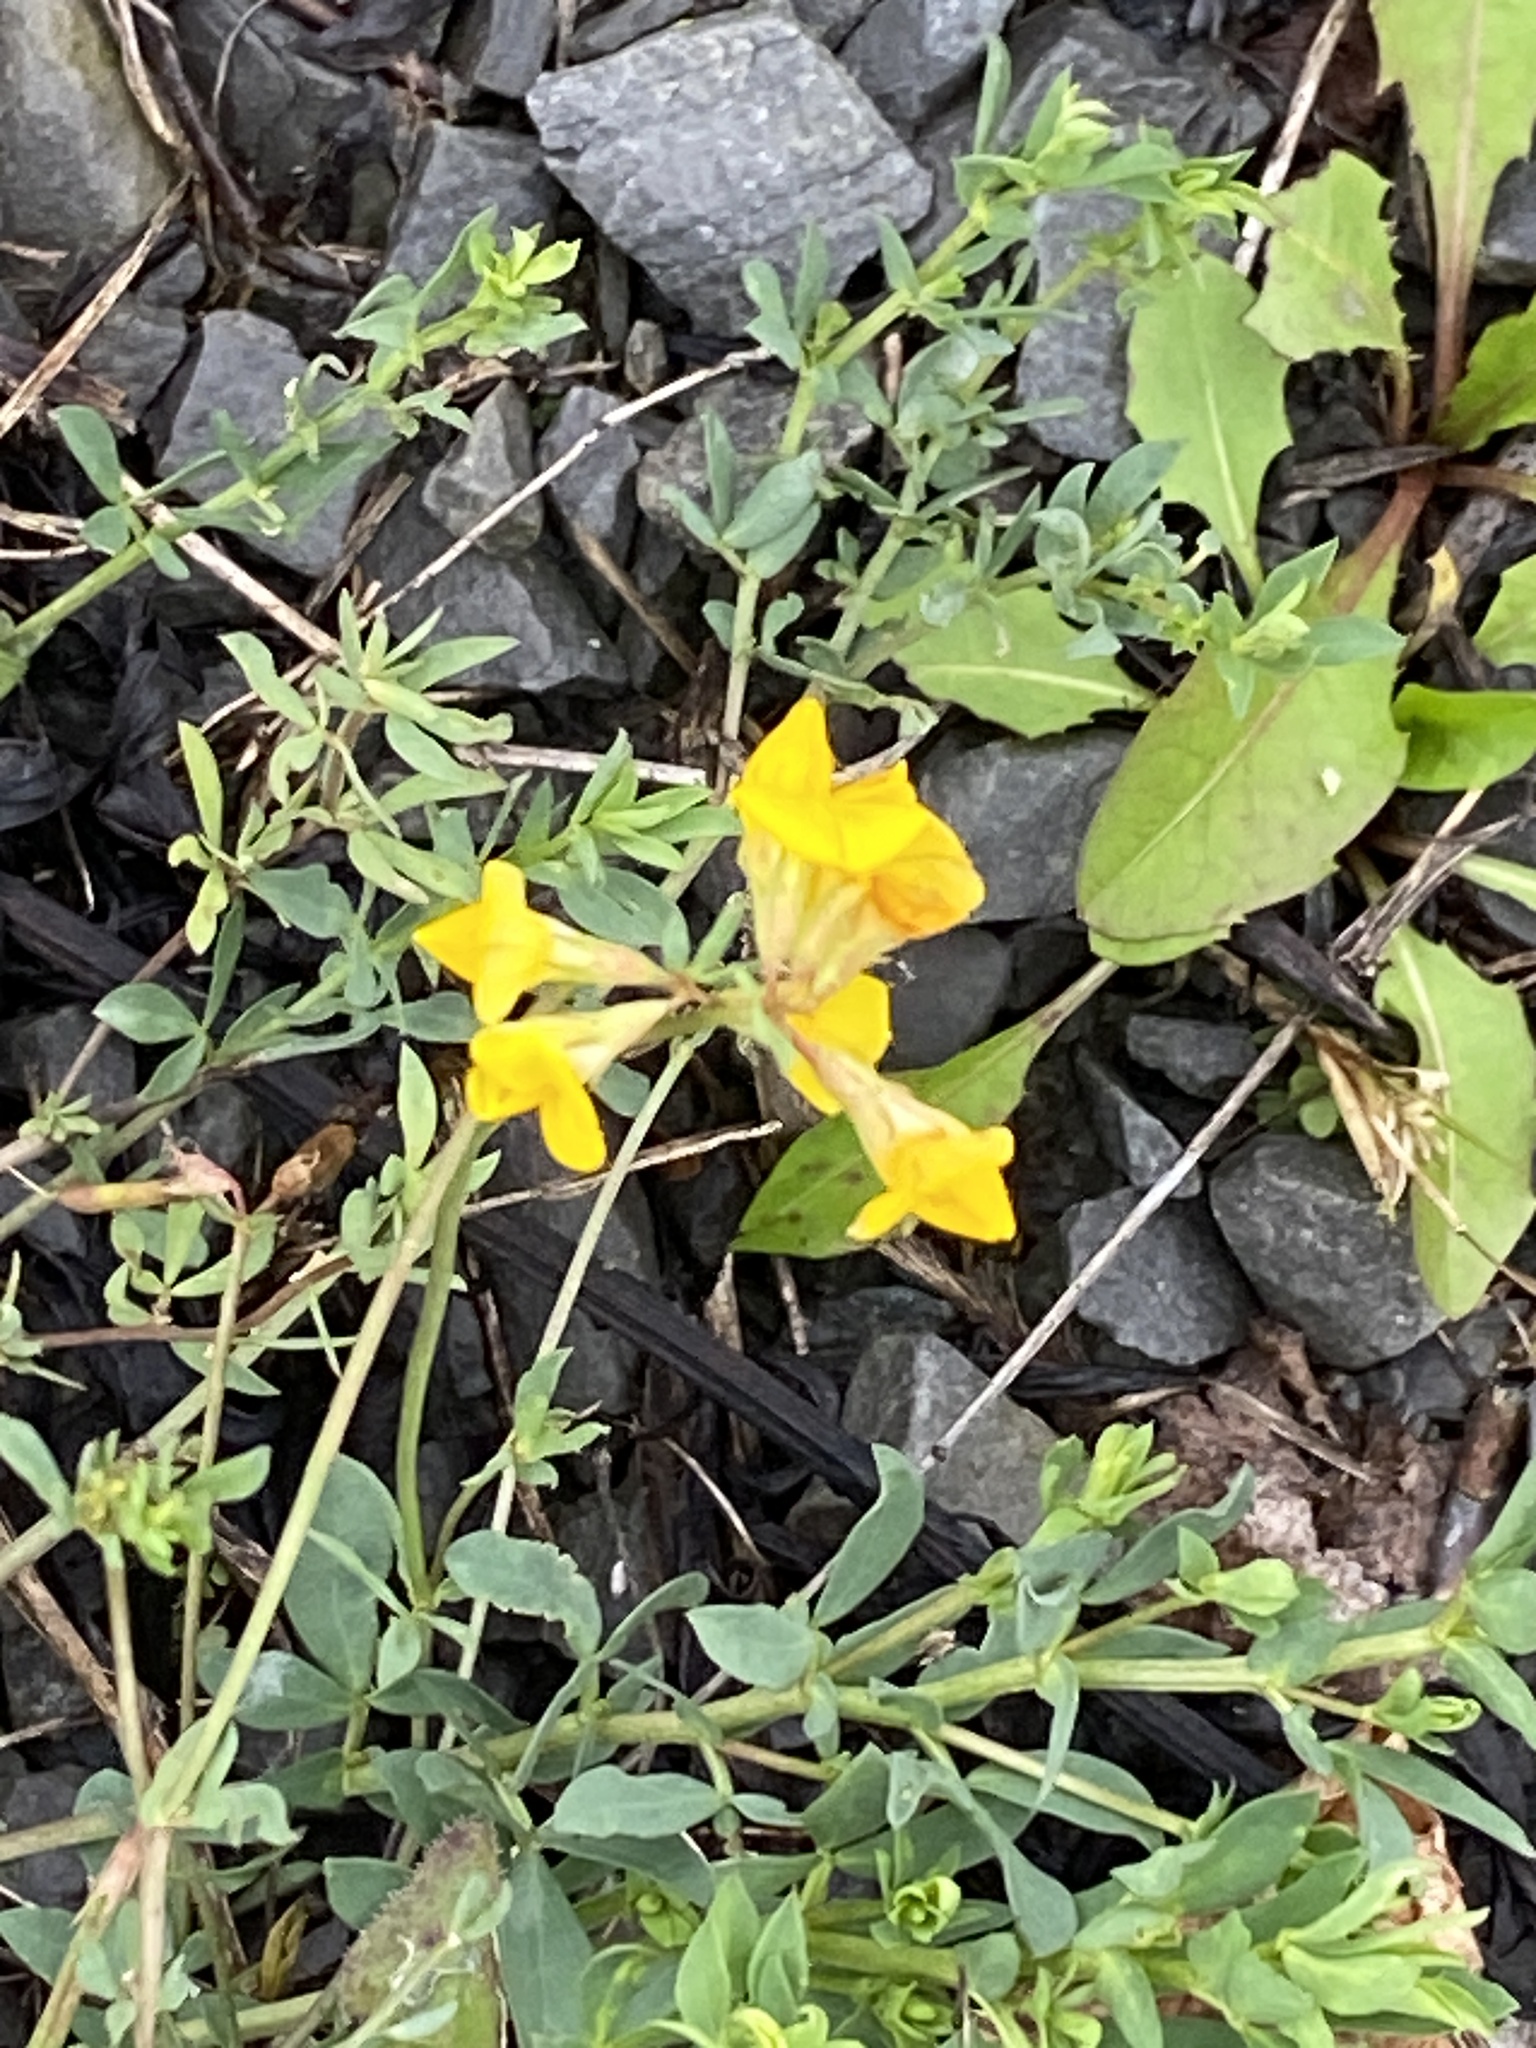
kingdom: Plantae
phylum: Tracheophyta
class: Magnoliopsida
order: Fabales
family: Fabaceae
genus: Lotus
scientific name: Lotus corniculatus
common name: Common bird's-foot-trefoil
